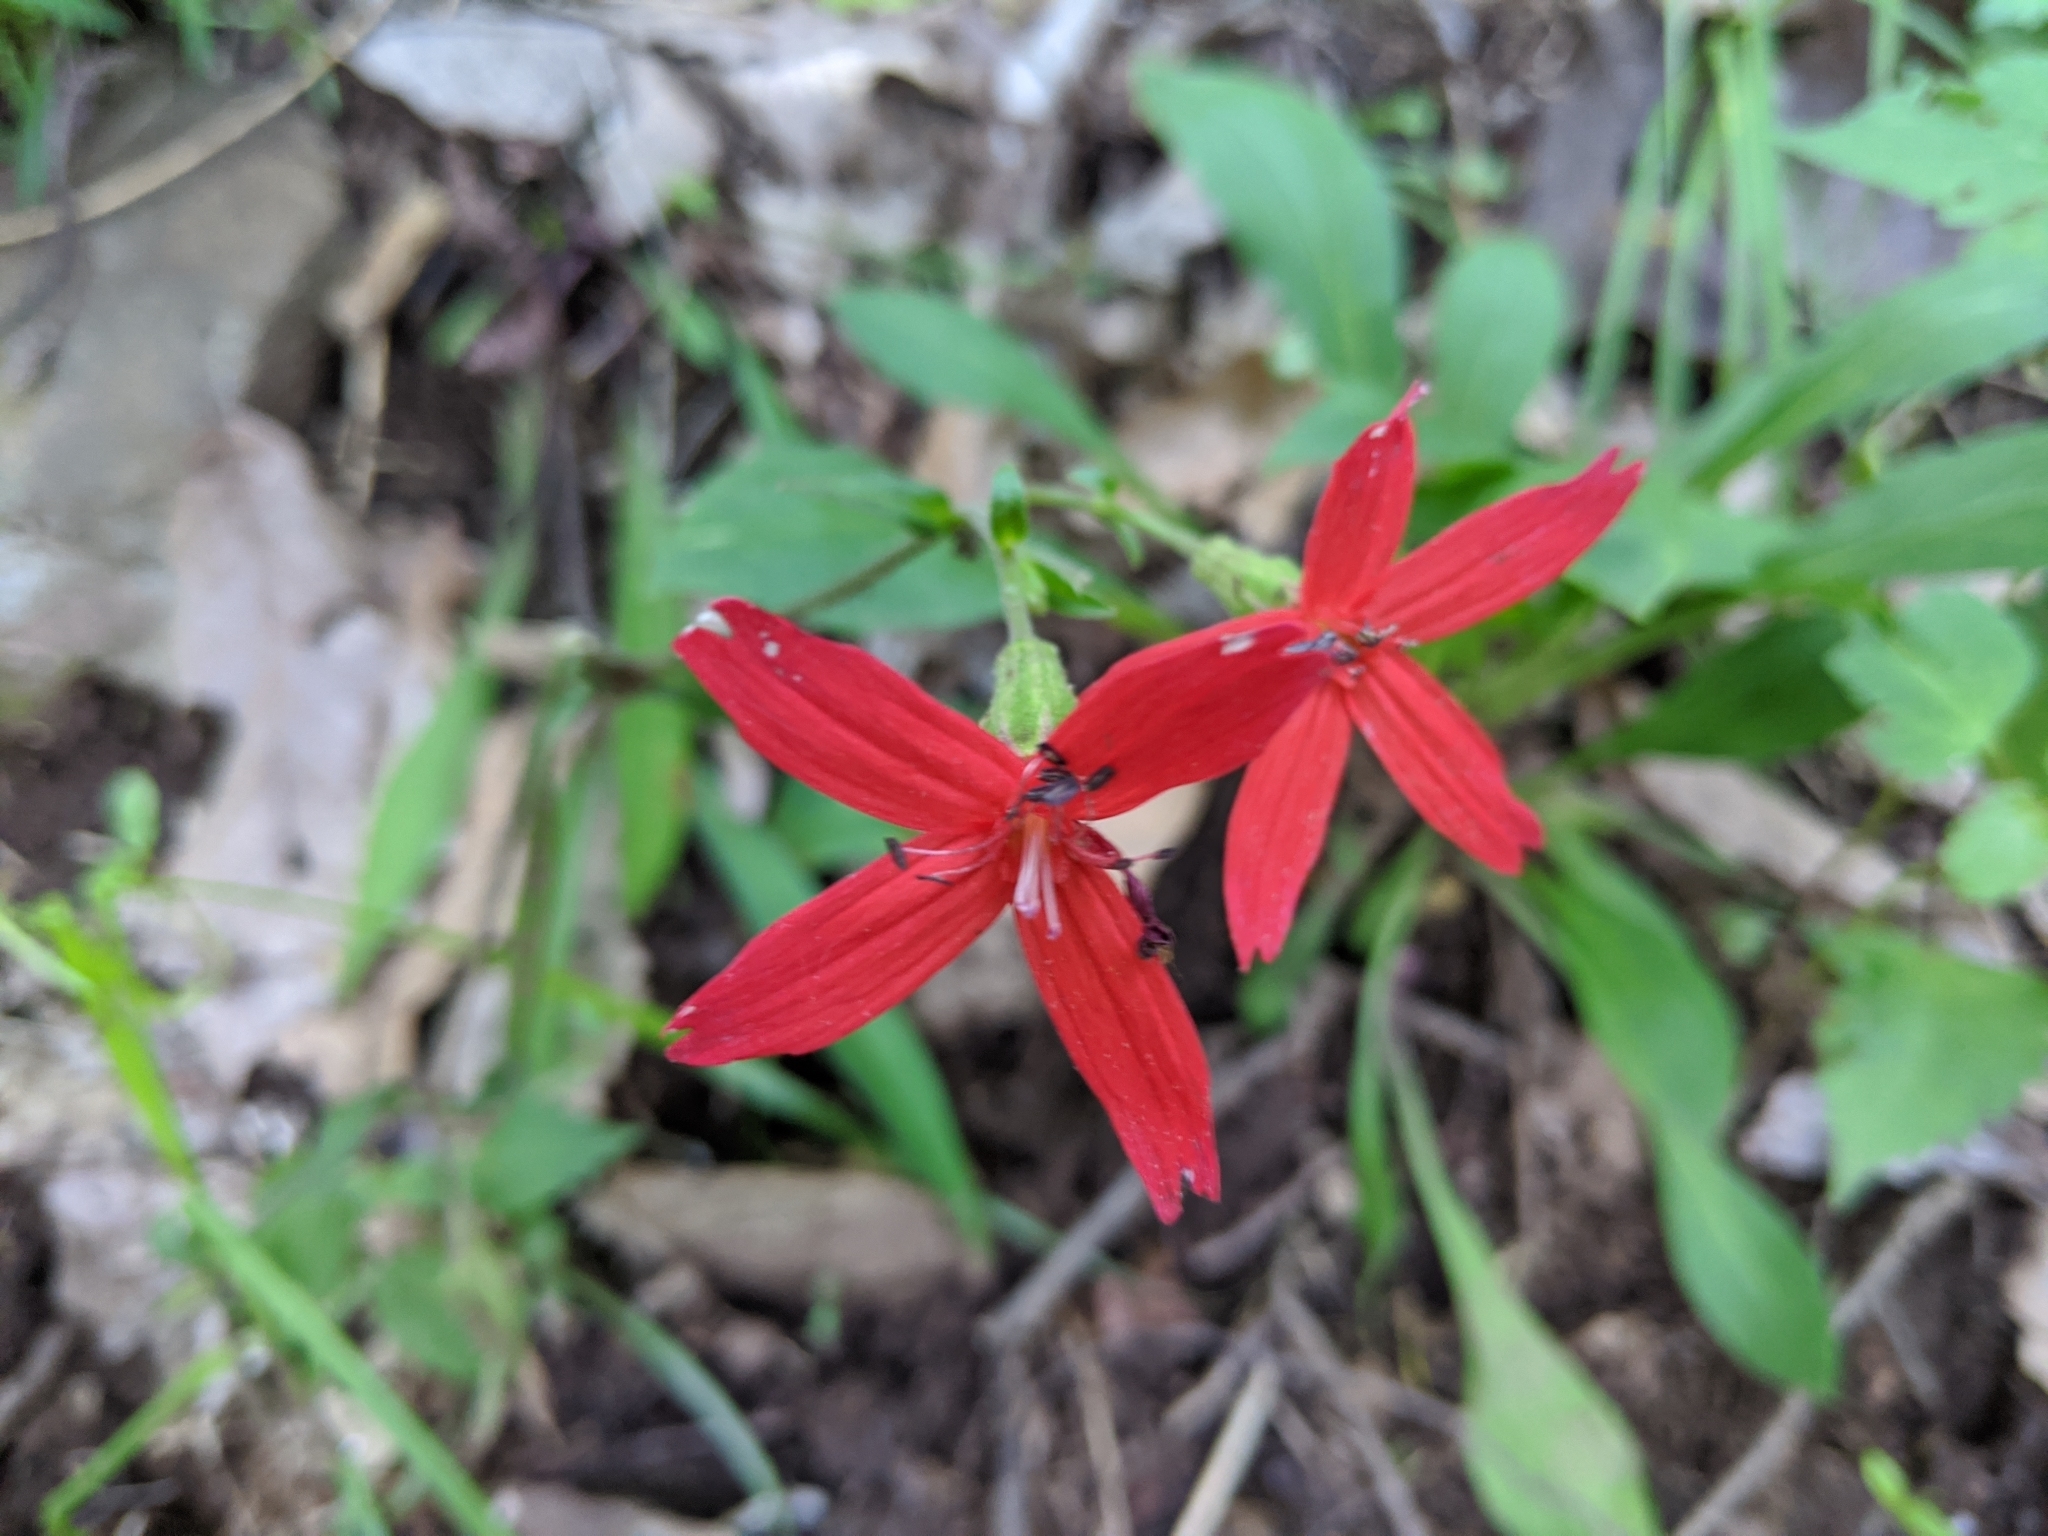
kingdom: Plantae
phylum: Tracheophyta
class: Magnoliopsida
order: Caryophyllales
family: Caryophyllaceae
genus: Silene
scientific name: Silene virginica
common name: Fire-pink
